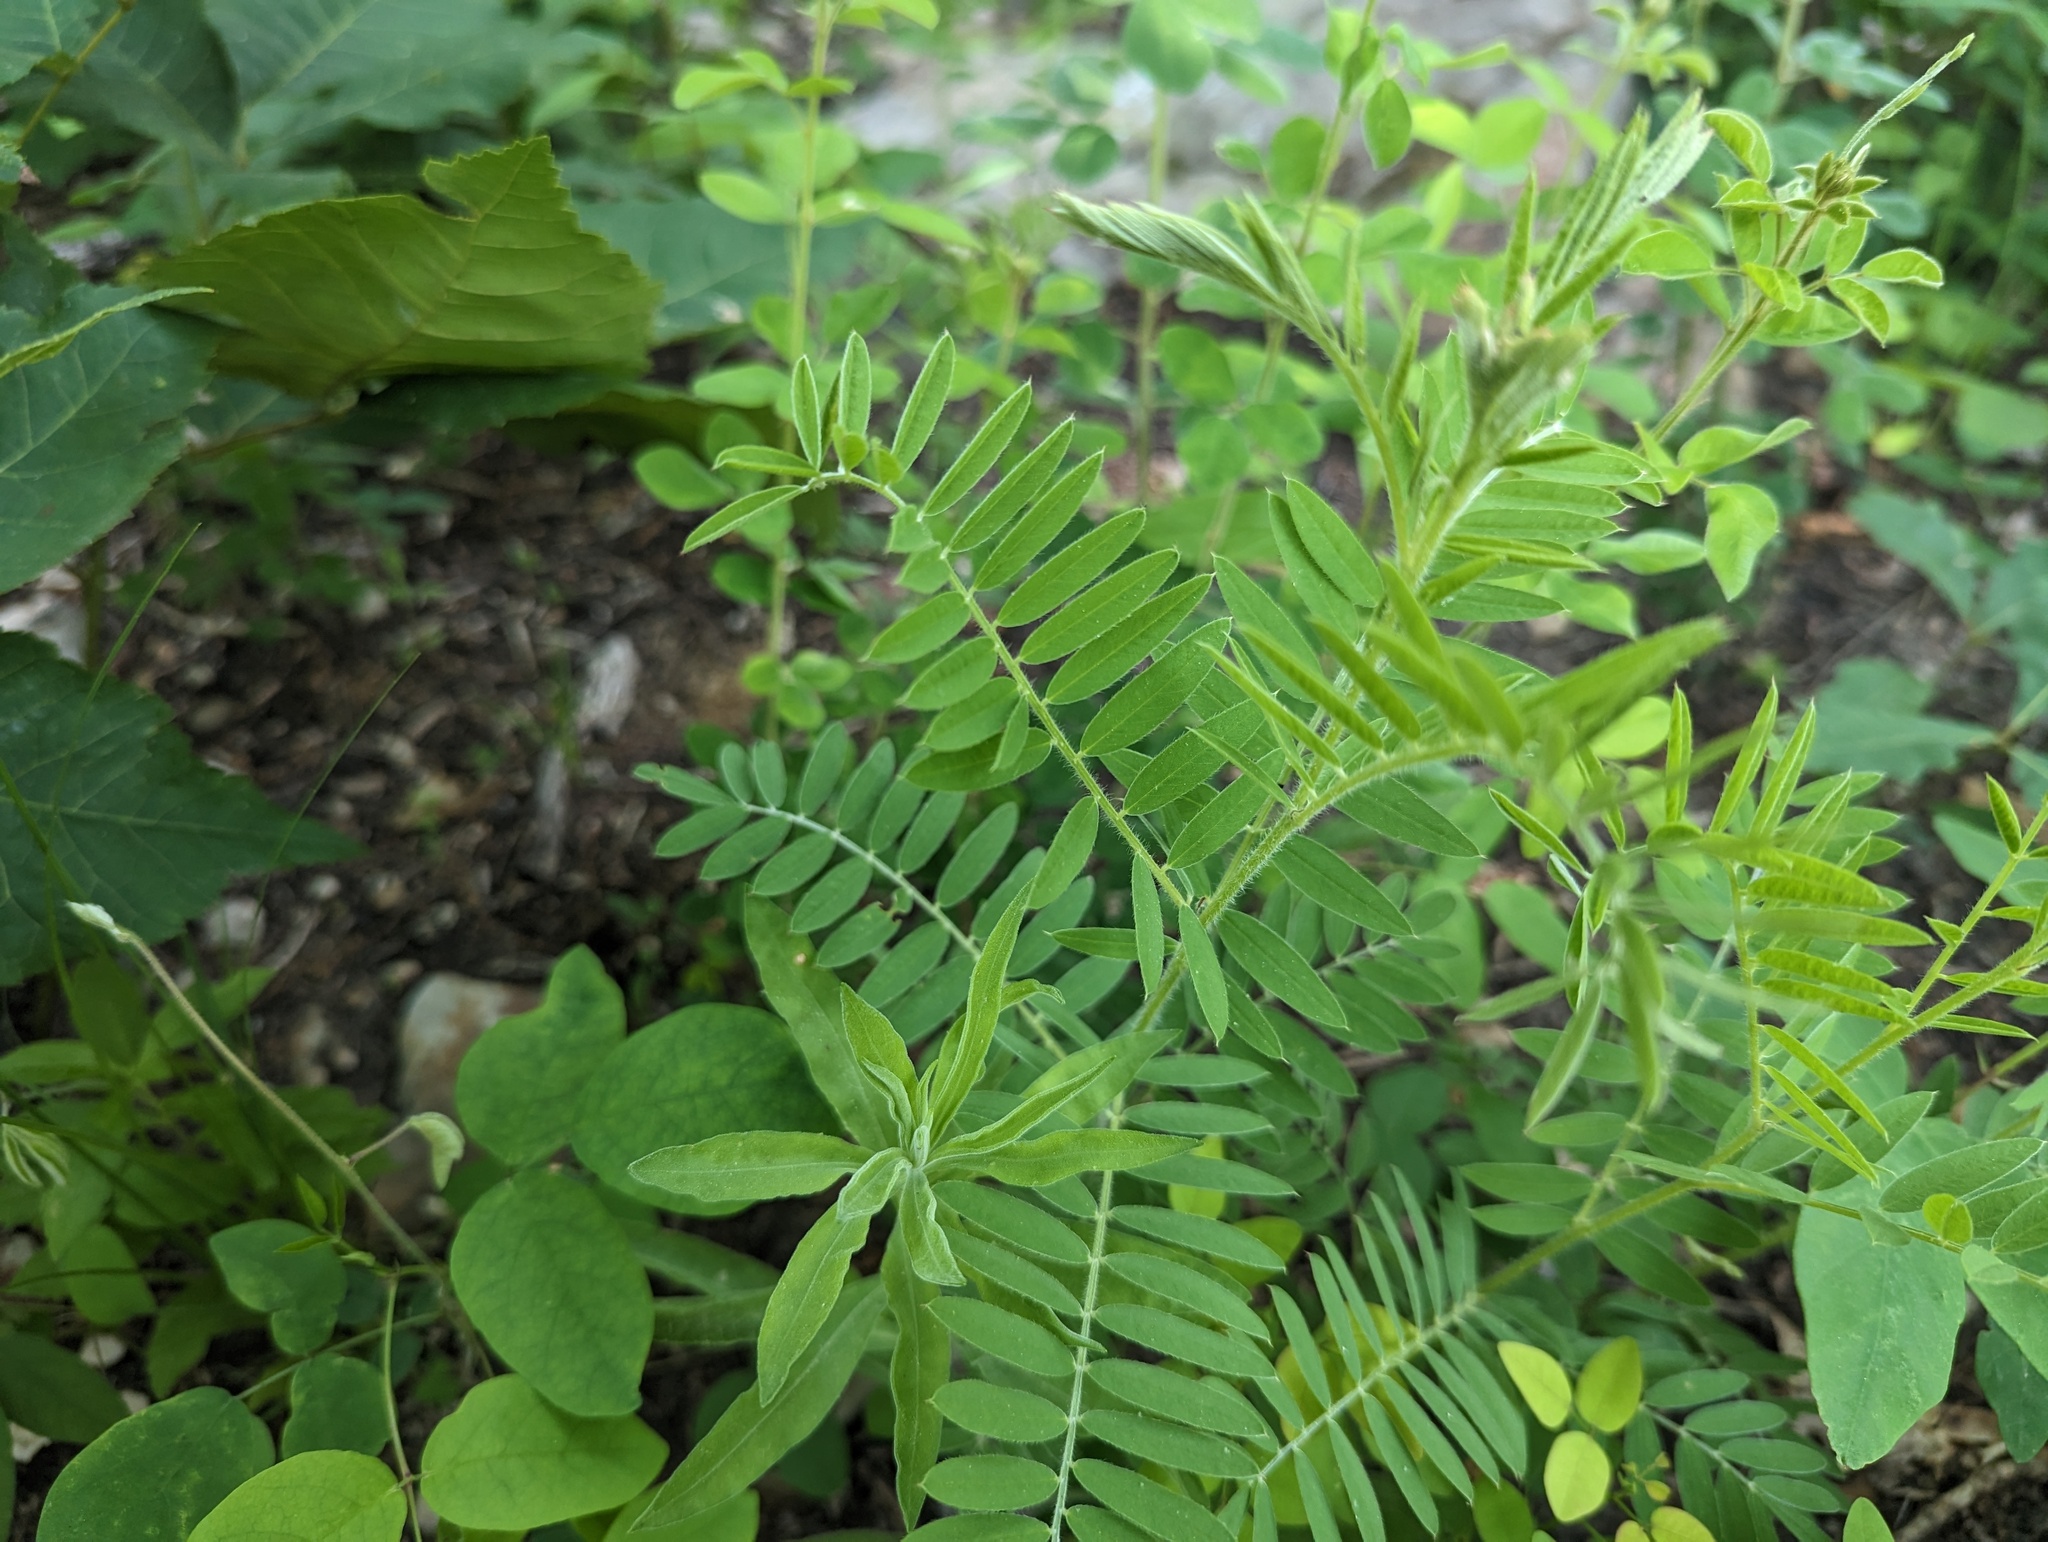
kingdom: Plantae
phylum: Tracheophyta
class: Magnoliopsida
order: Fabales
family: Fabaceae
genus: Tephrosia
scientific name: Tephrosia virginiana
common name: Rabbit-pea
